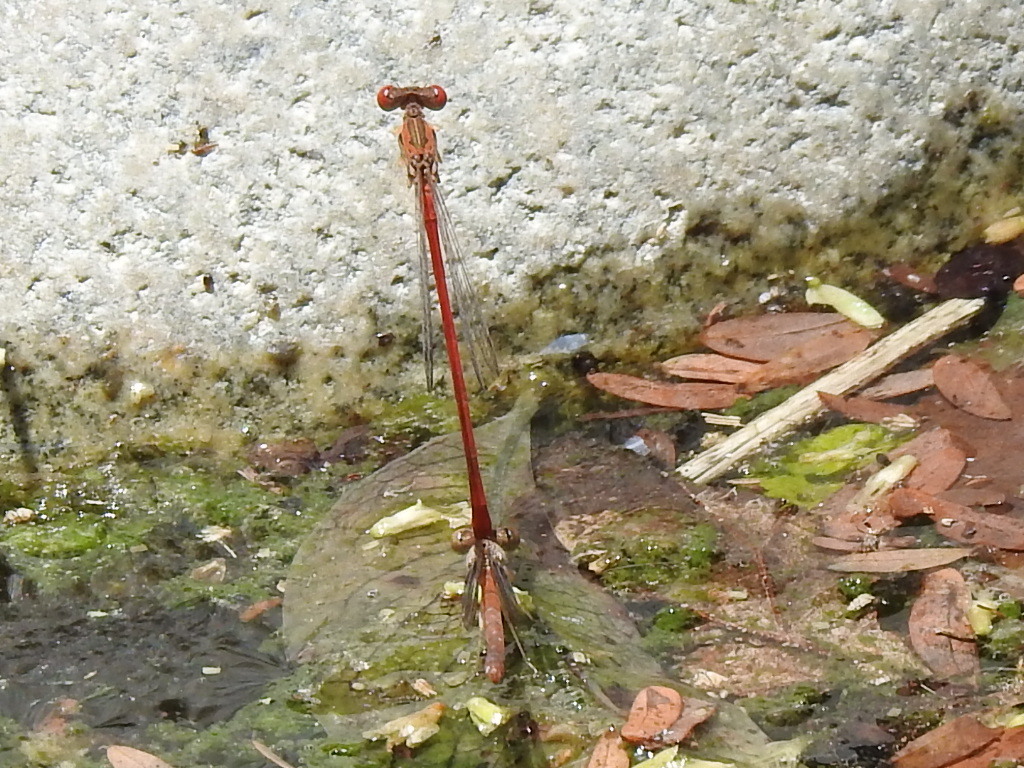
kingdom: Animalia
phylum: Arthropoda
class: Insecta
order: Odonata
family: Coenagrionidae
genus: Telebasis
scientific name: Telebasis salva
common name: Desert firetail
